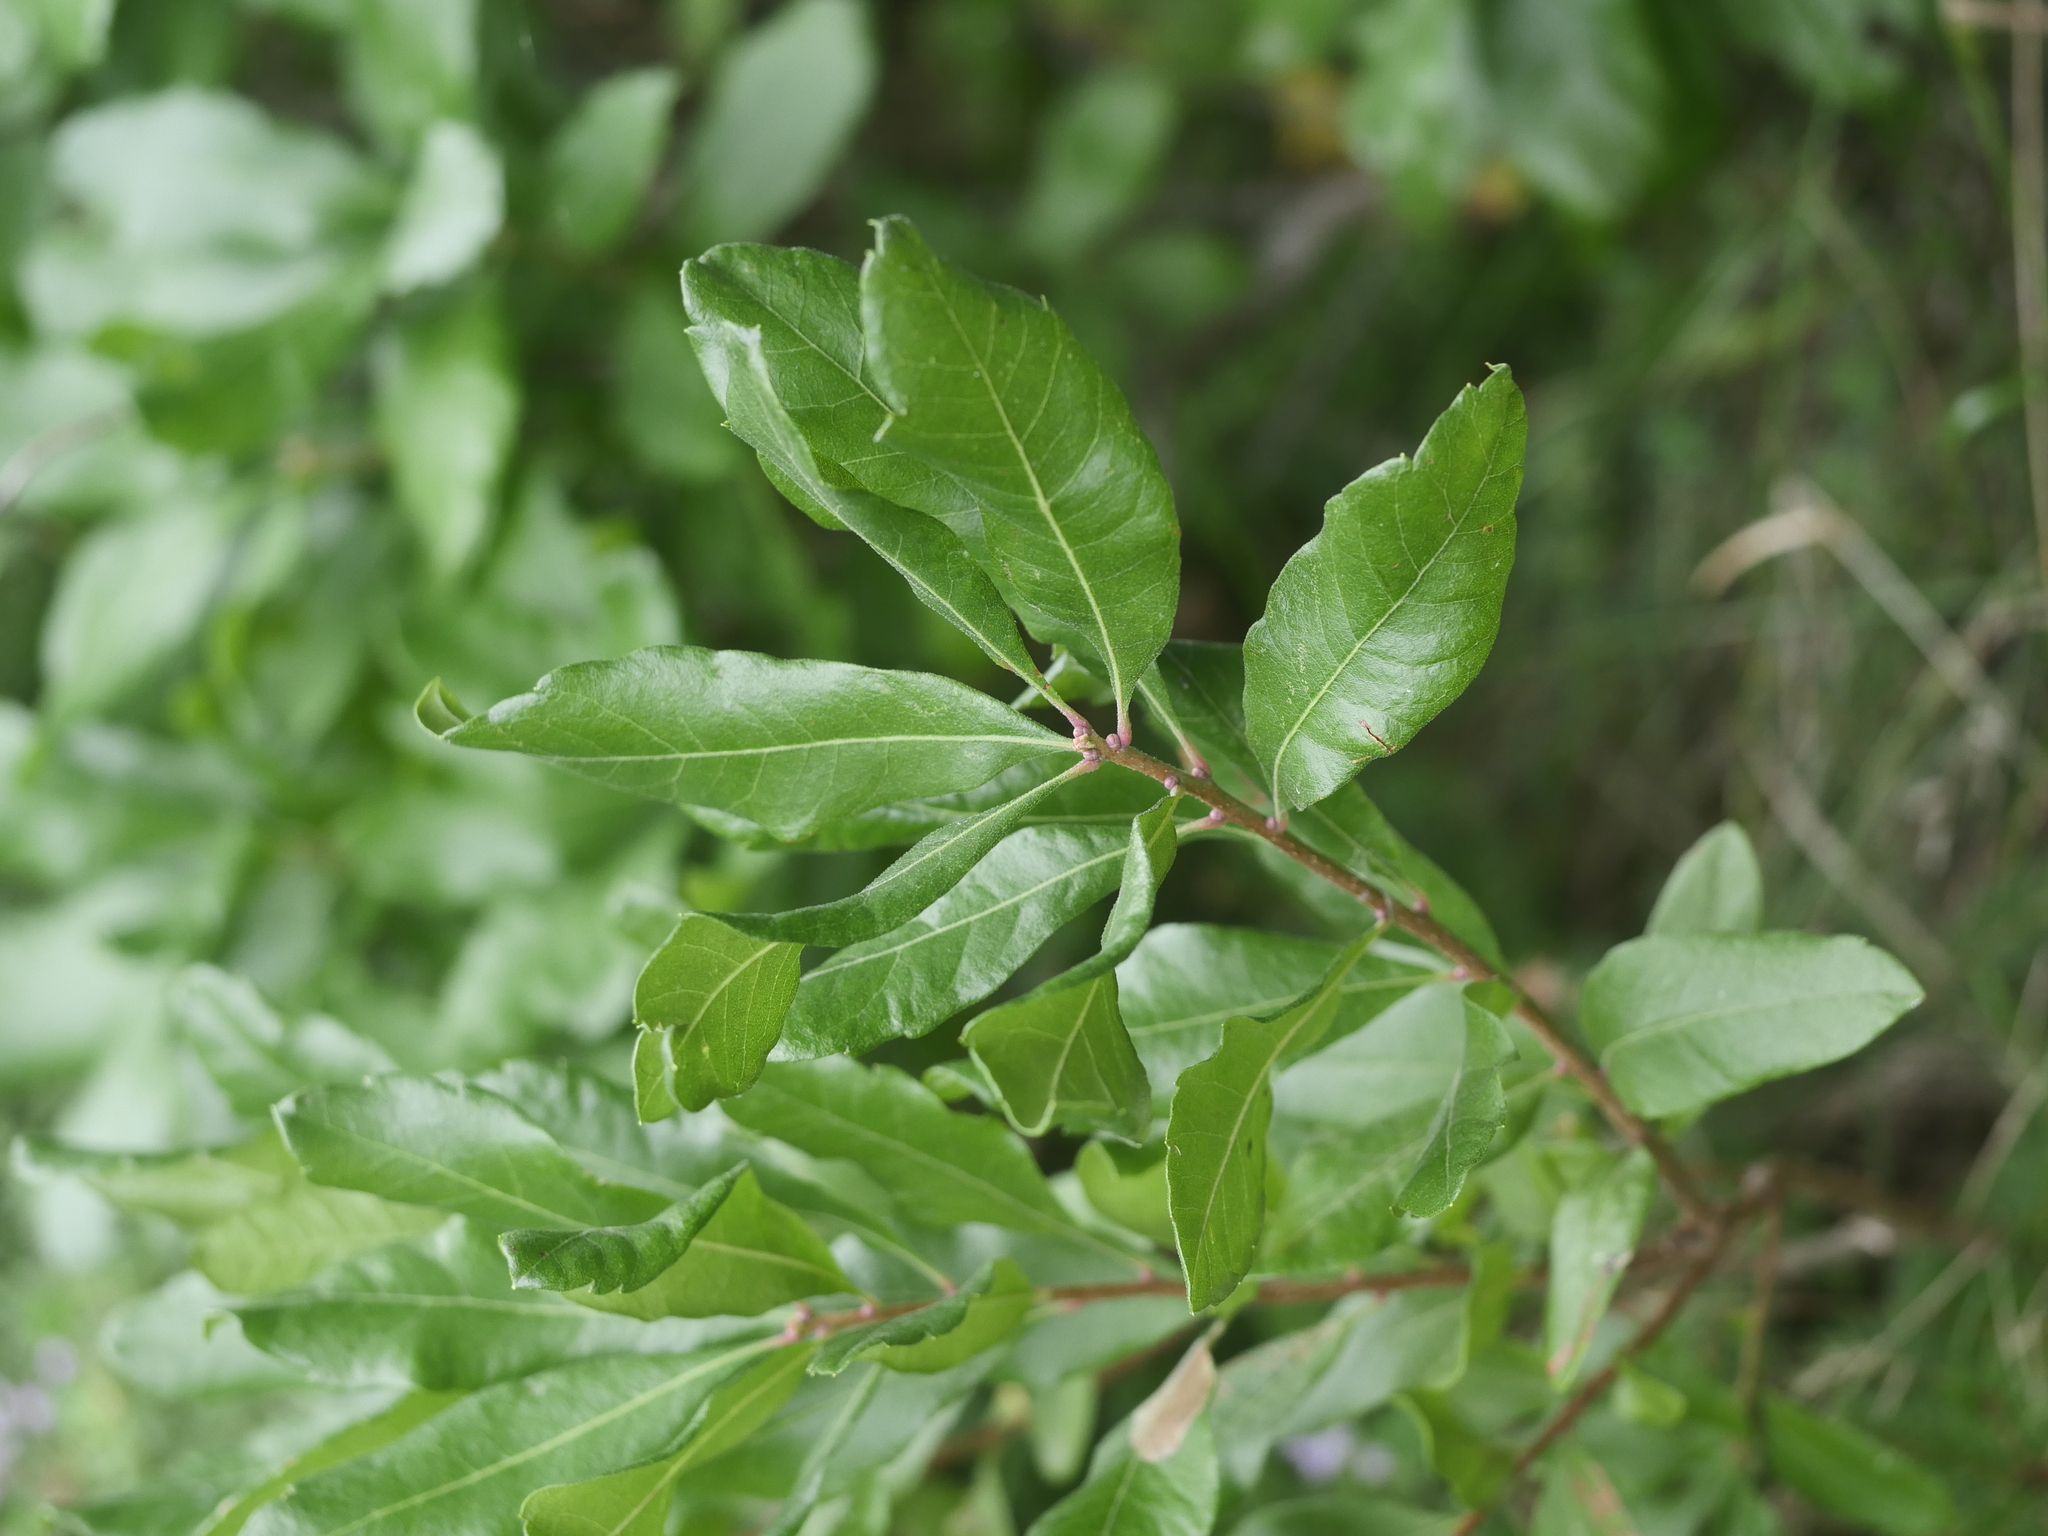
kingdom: Plantae
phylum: Tracheophyta
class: Magnoliopsida
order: Fagales
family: Myricaceae
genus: Morella
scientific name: Morella pensylvanica
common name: Northern bayberry
